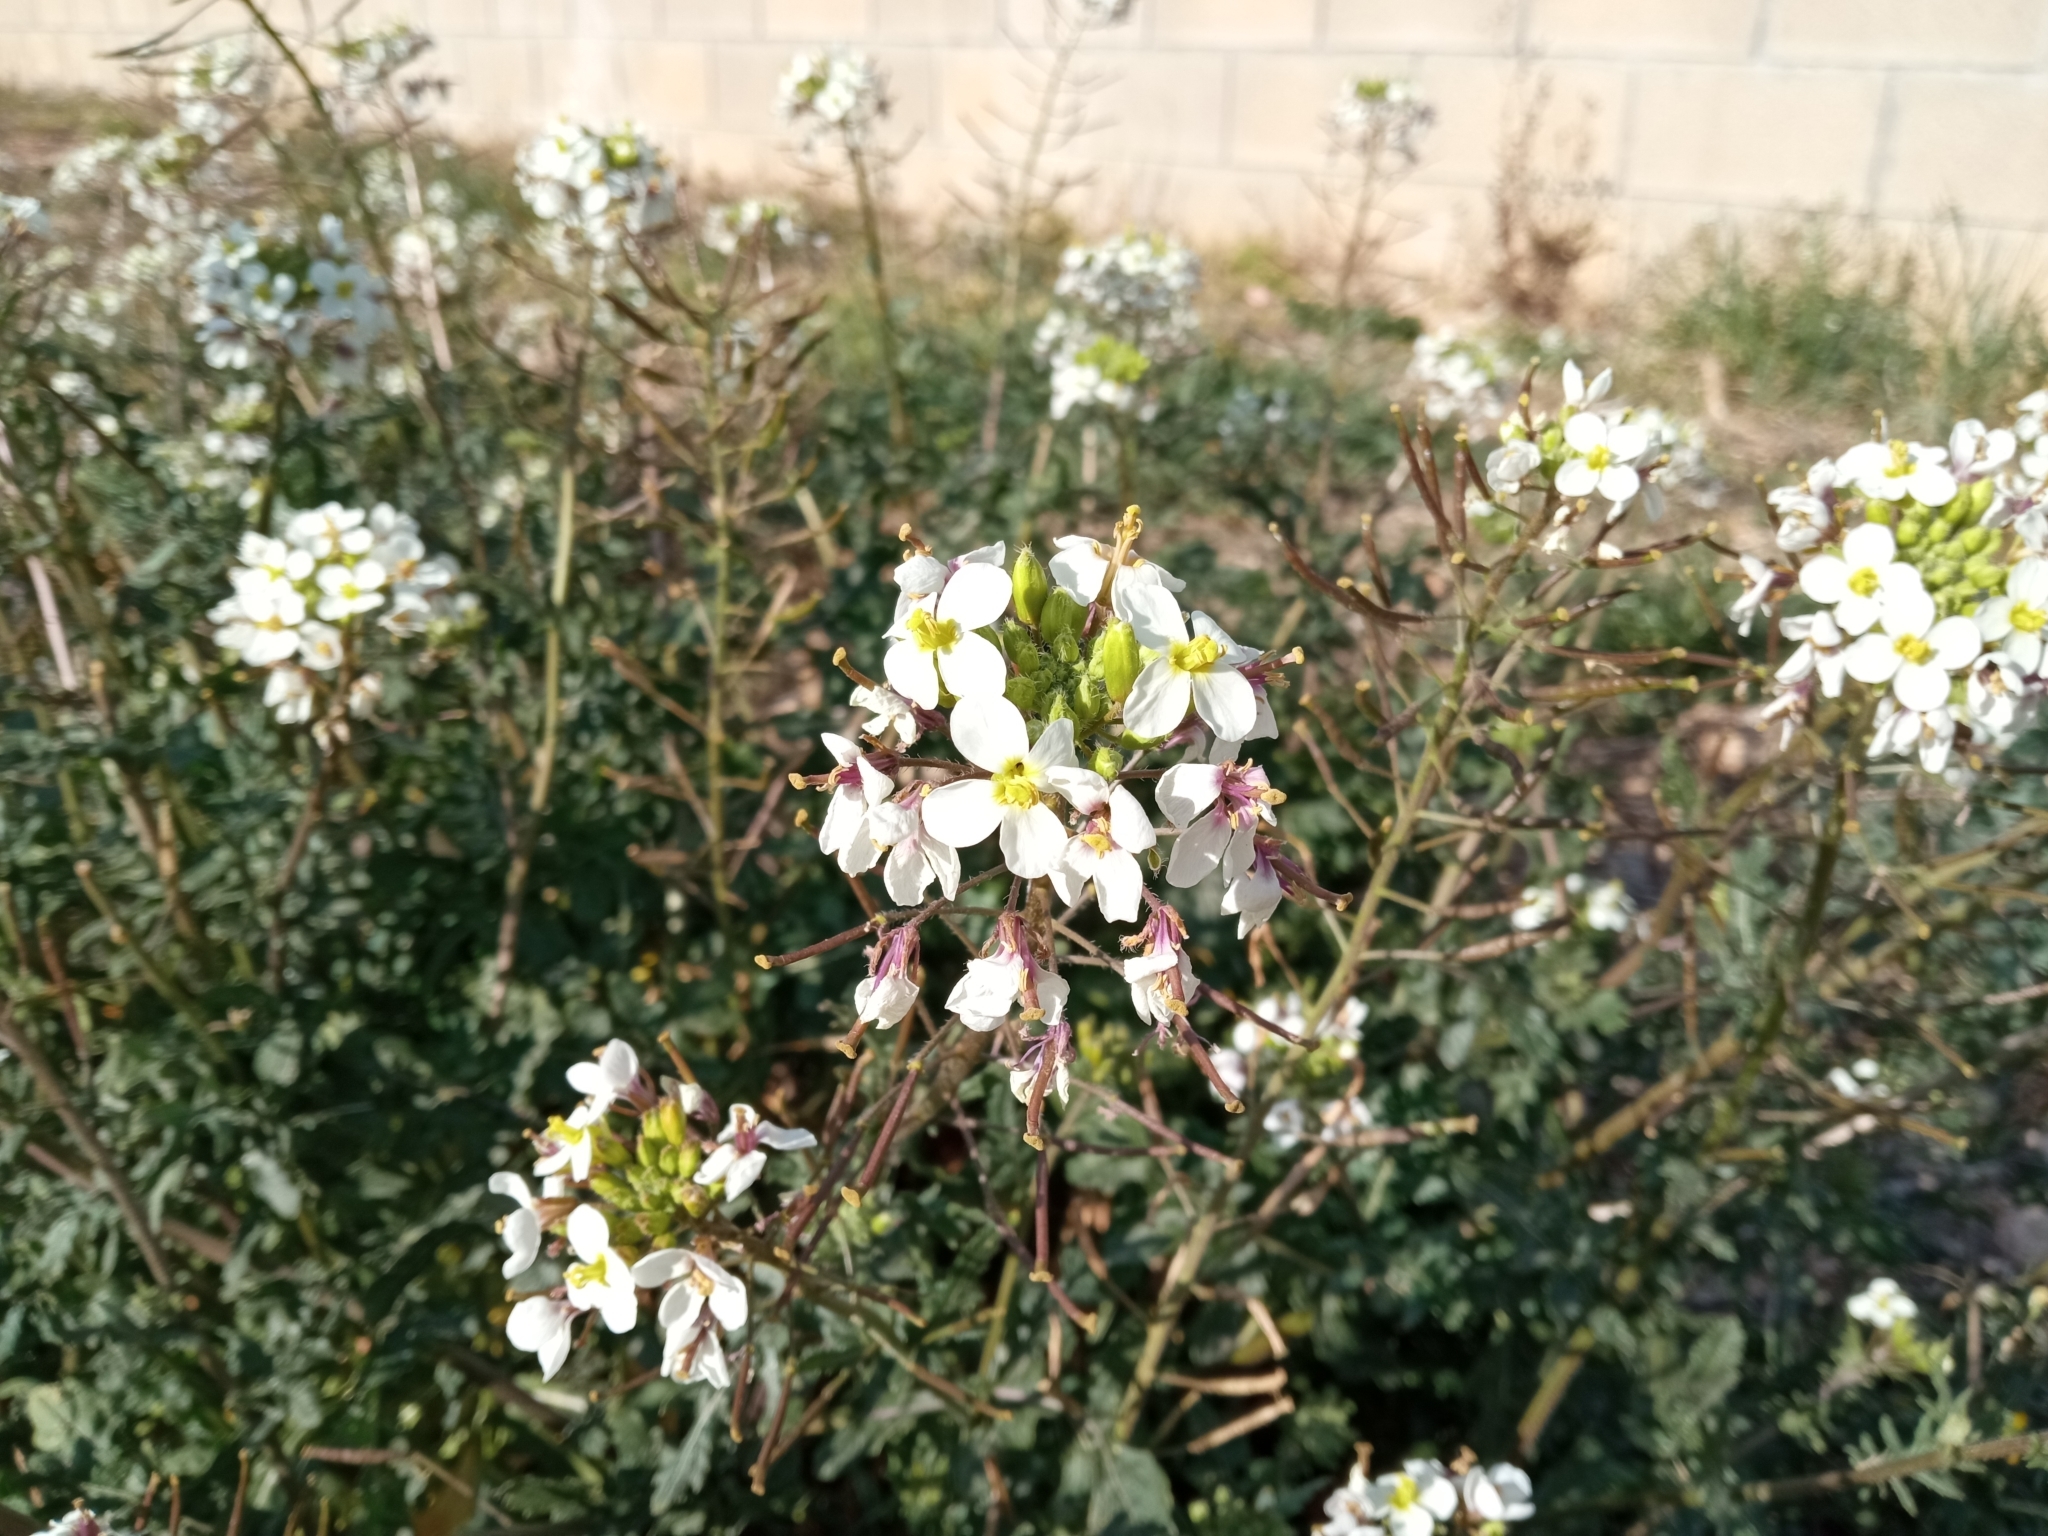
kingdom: Plantae
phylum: Tracheophyta
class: Magnoliopsida
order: Brassicales
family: Brassicaceae
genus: Diplotaxis
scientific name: Diplotaxis erucoides
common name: White rocket
